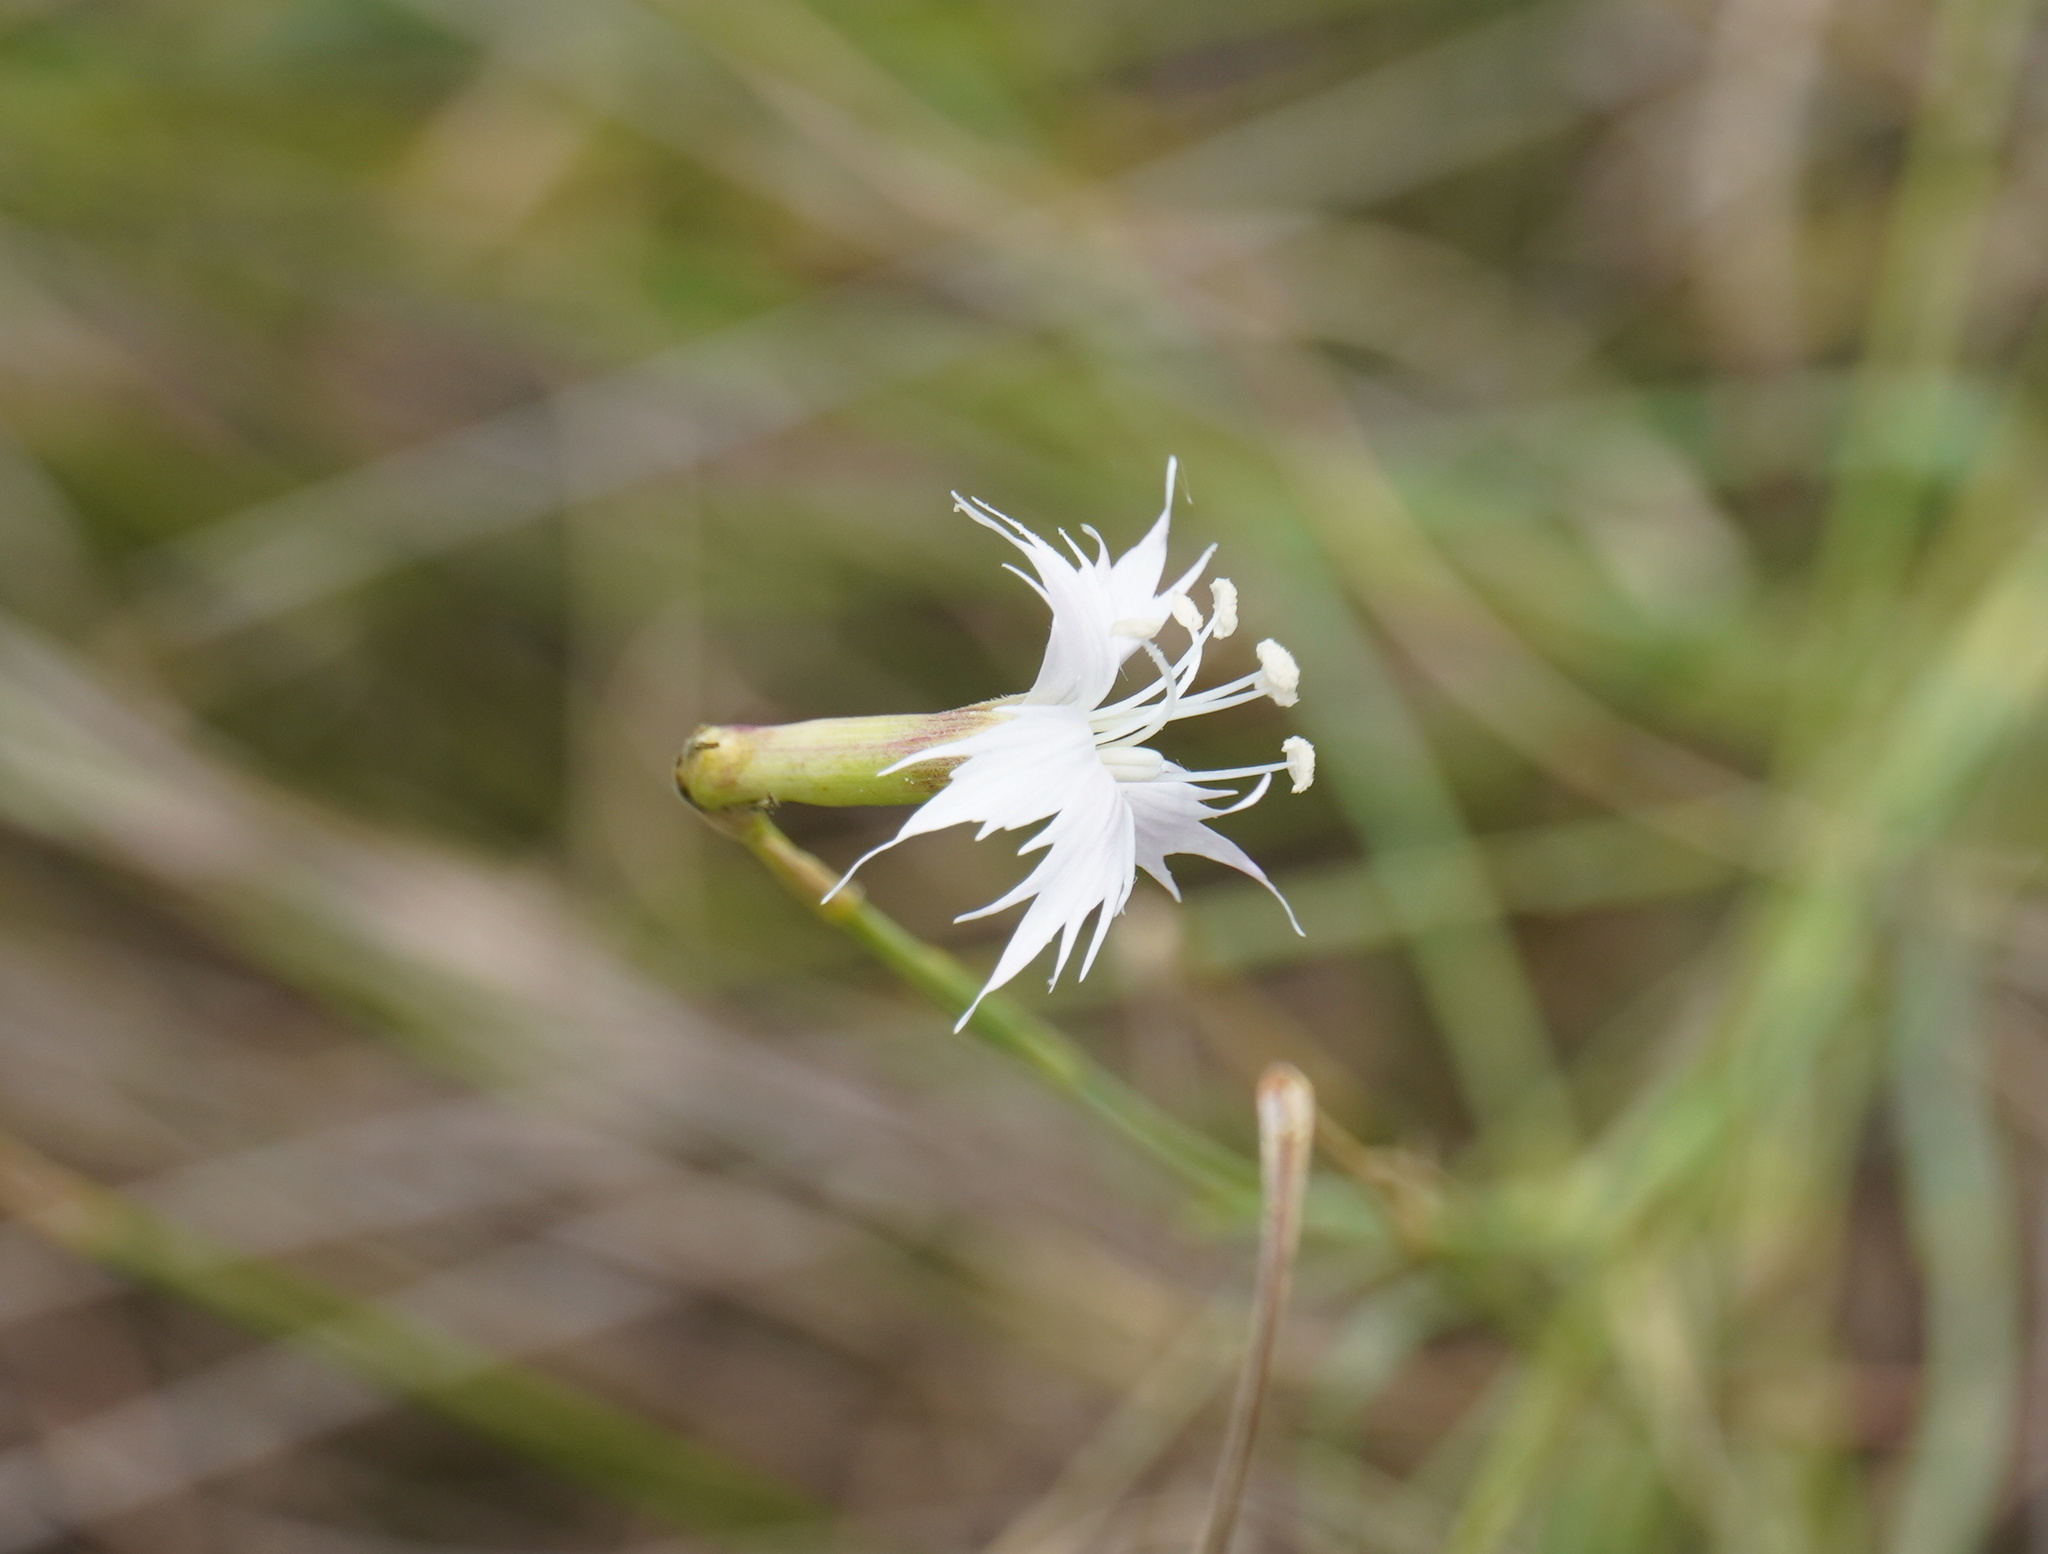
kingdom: Plantae
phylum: Tracheophyta
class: Magnoliopsida
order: Caryophyllales
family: Caryophyllaceae
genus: Dianthus
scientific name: Dianthus mooiensis
